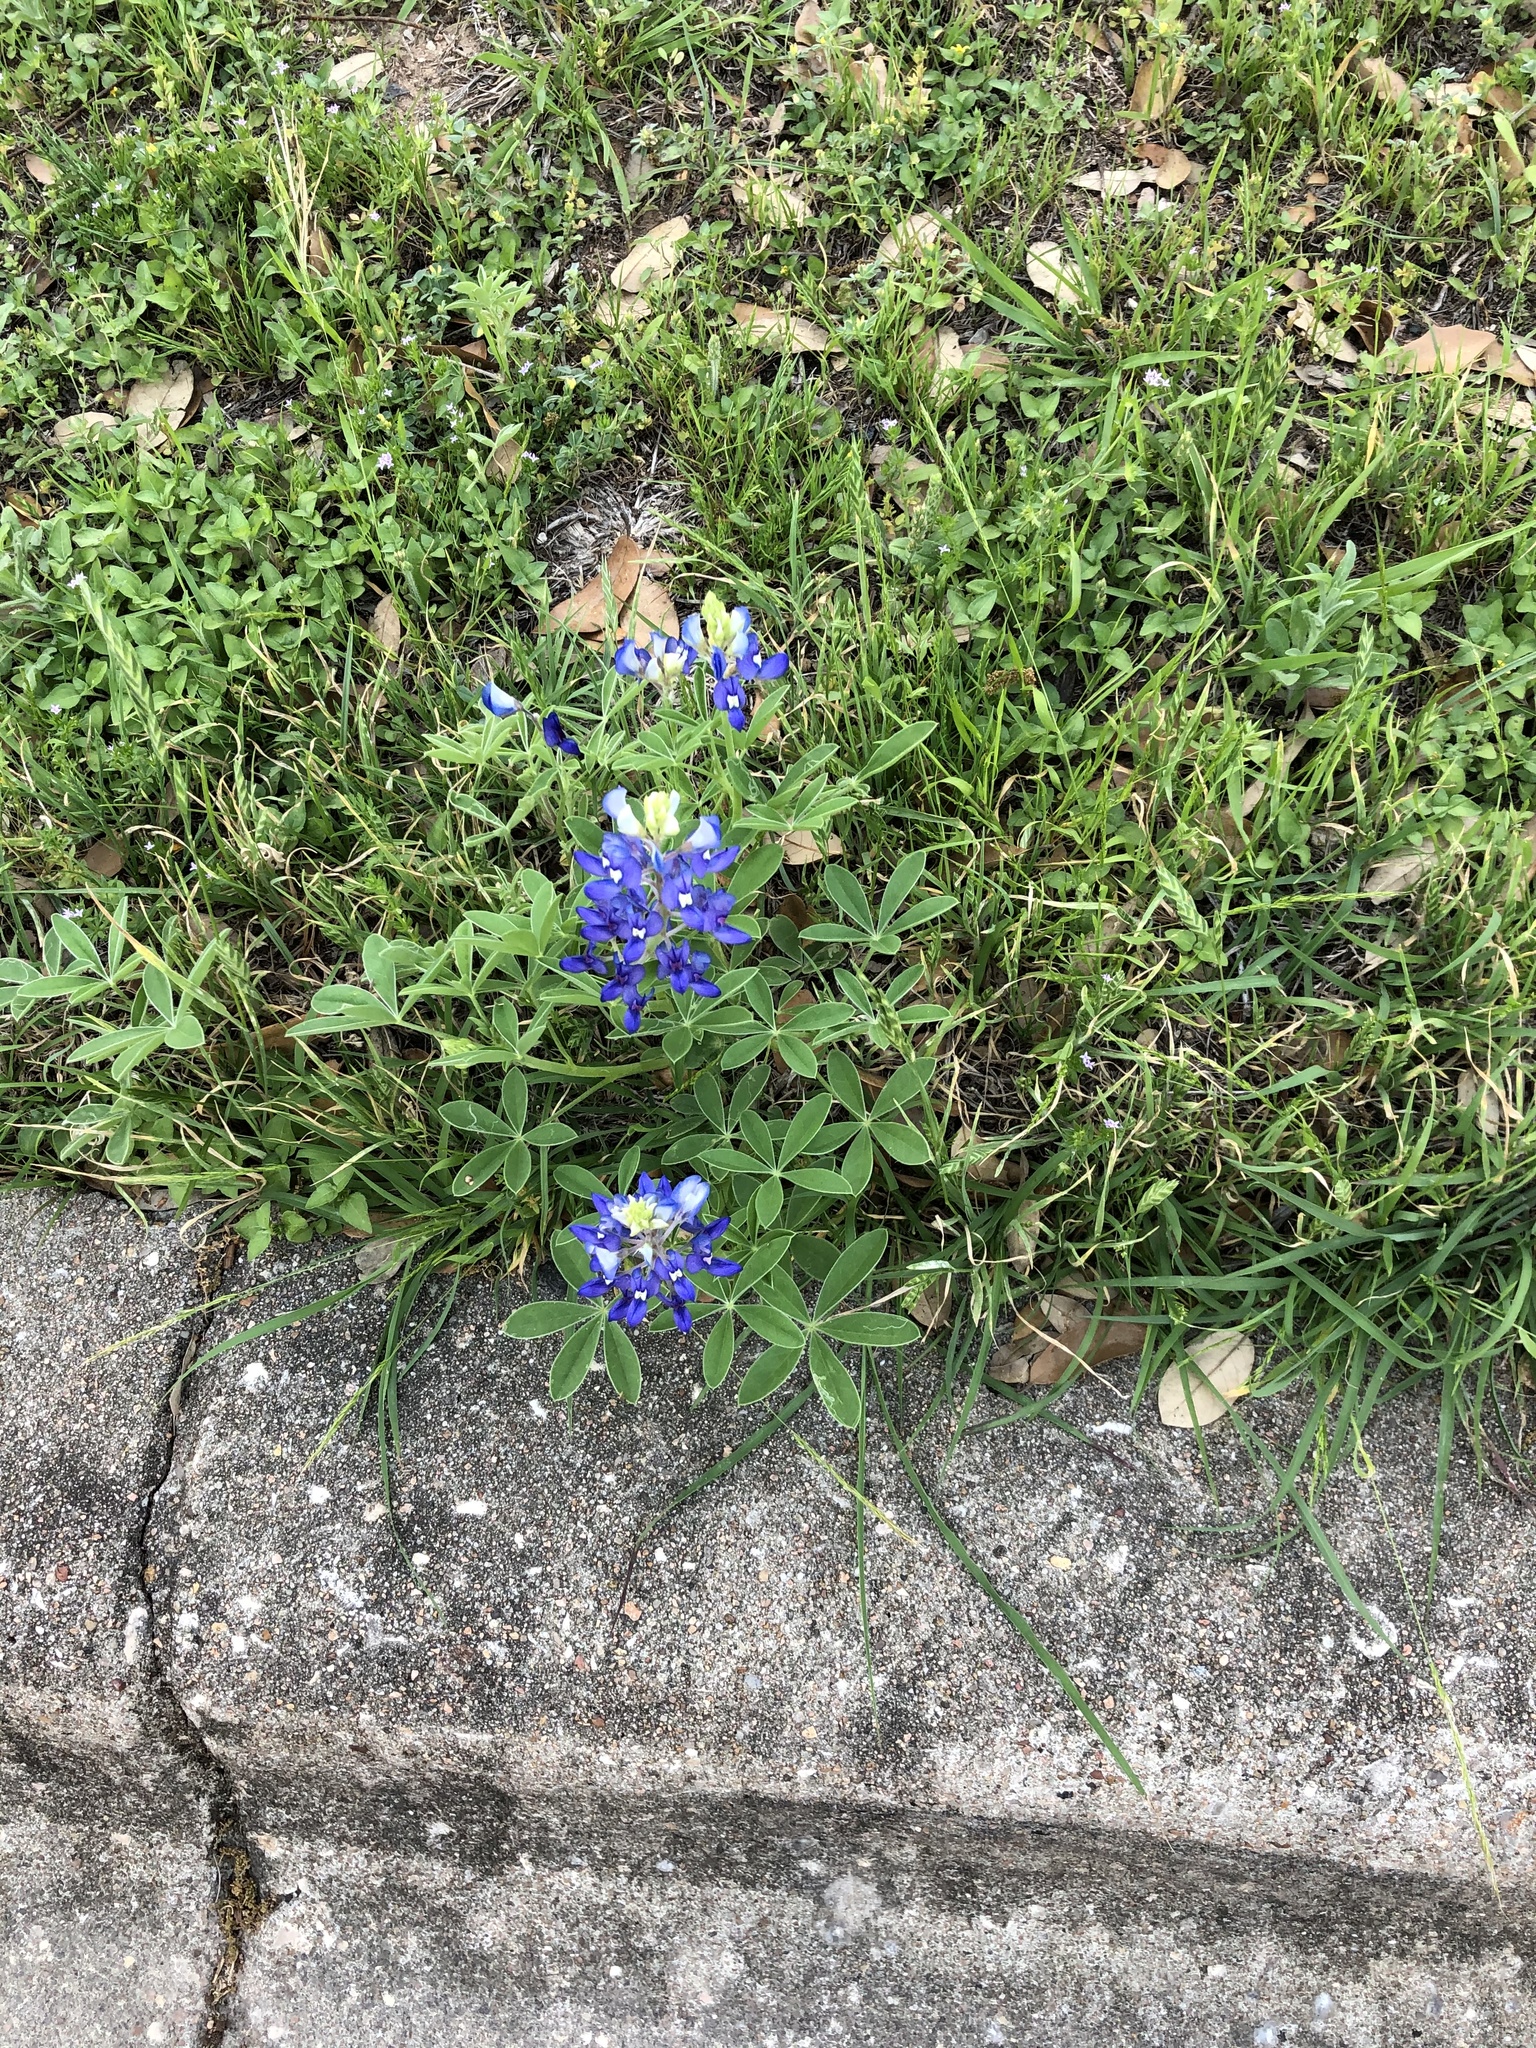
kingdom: Plantae
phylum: Tracheophyta
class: Magnoliopsida
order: Fabales
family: Fabaceae
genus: Lupinus
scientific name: Lupinus texensis
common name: Texas bluebonnet
